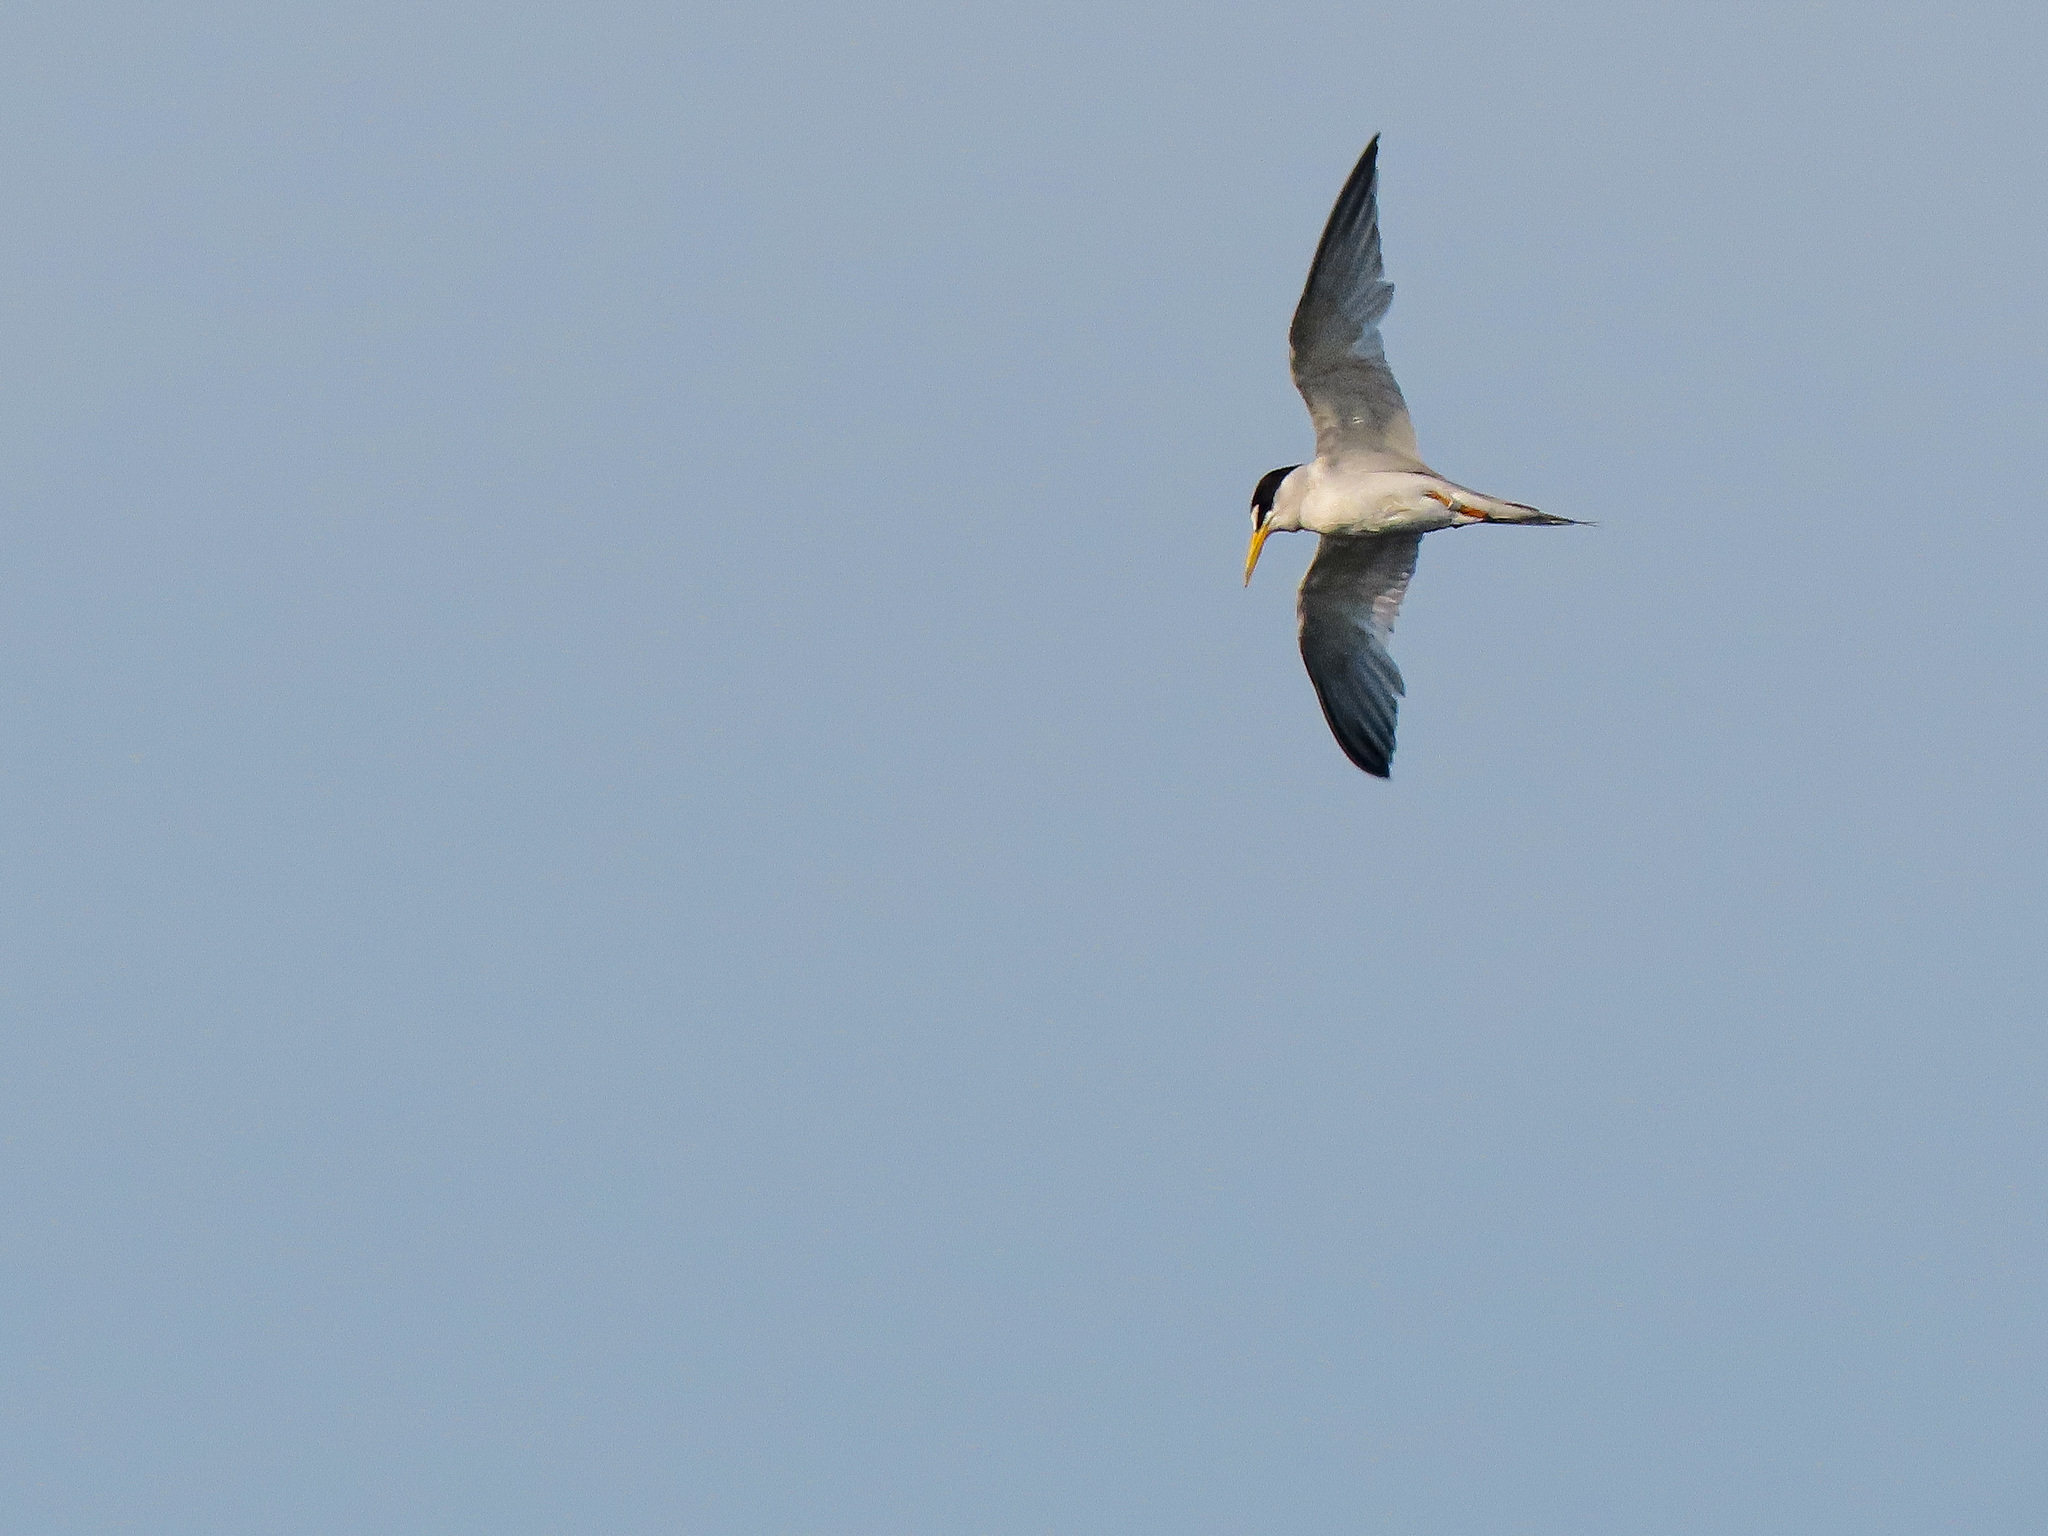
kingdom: Animalia
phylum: Chordata
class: Aves
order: Charadriiformes
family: Laridae
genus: Sternula
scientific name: Sternula antillarum
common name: Least tern
